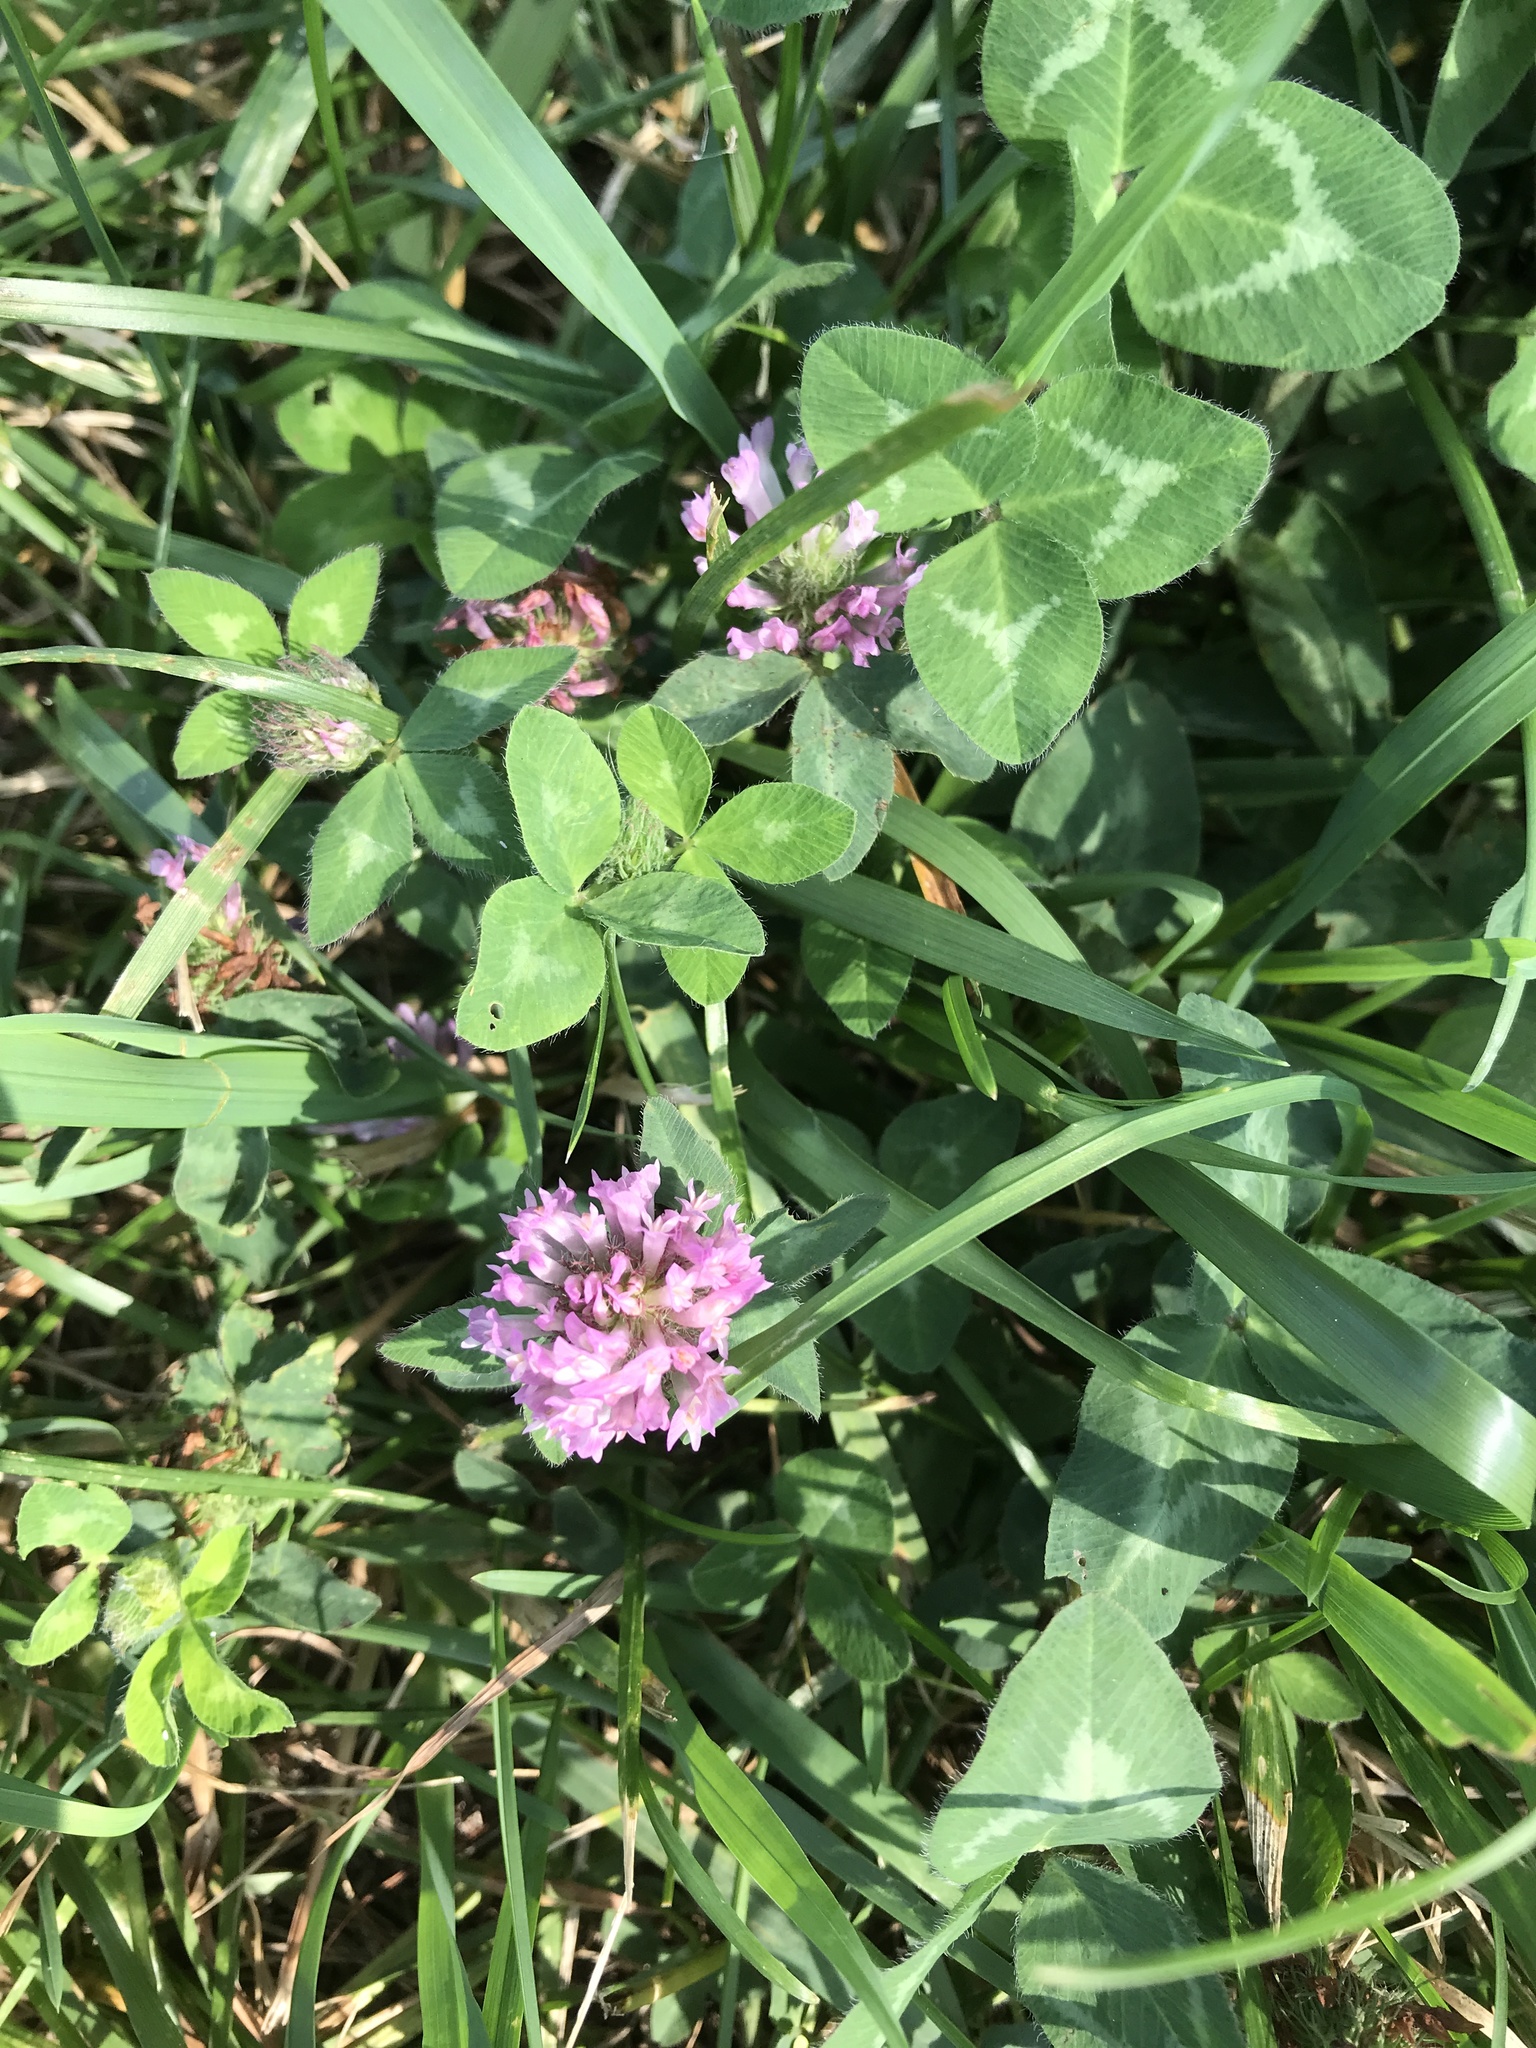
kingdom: Plantae
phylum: Tracheophyta
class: Magnoliopsida
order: Fabales
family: Fabaceae
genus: Trifolium
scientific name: Trifolium pratense
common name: Red clover
